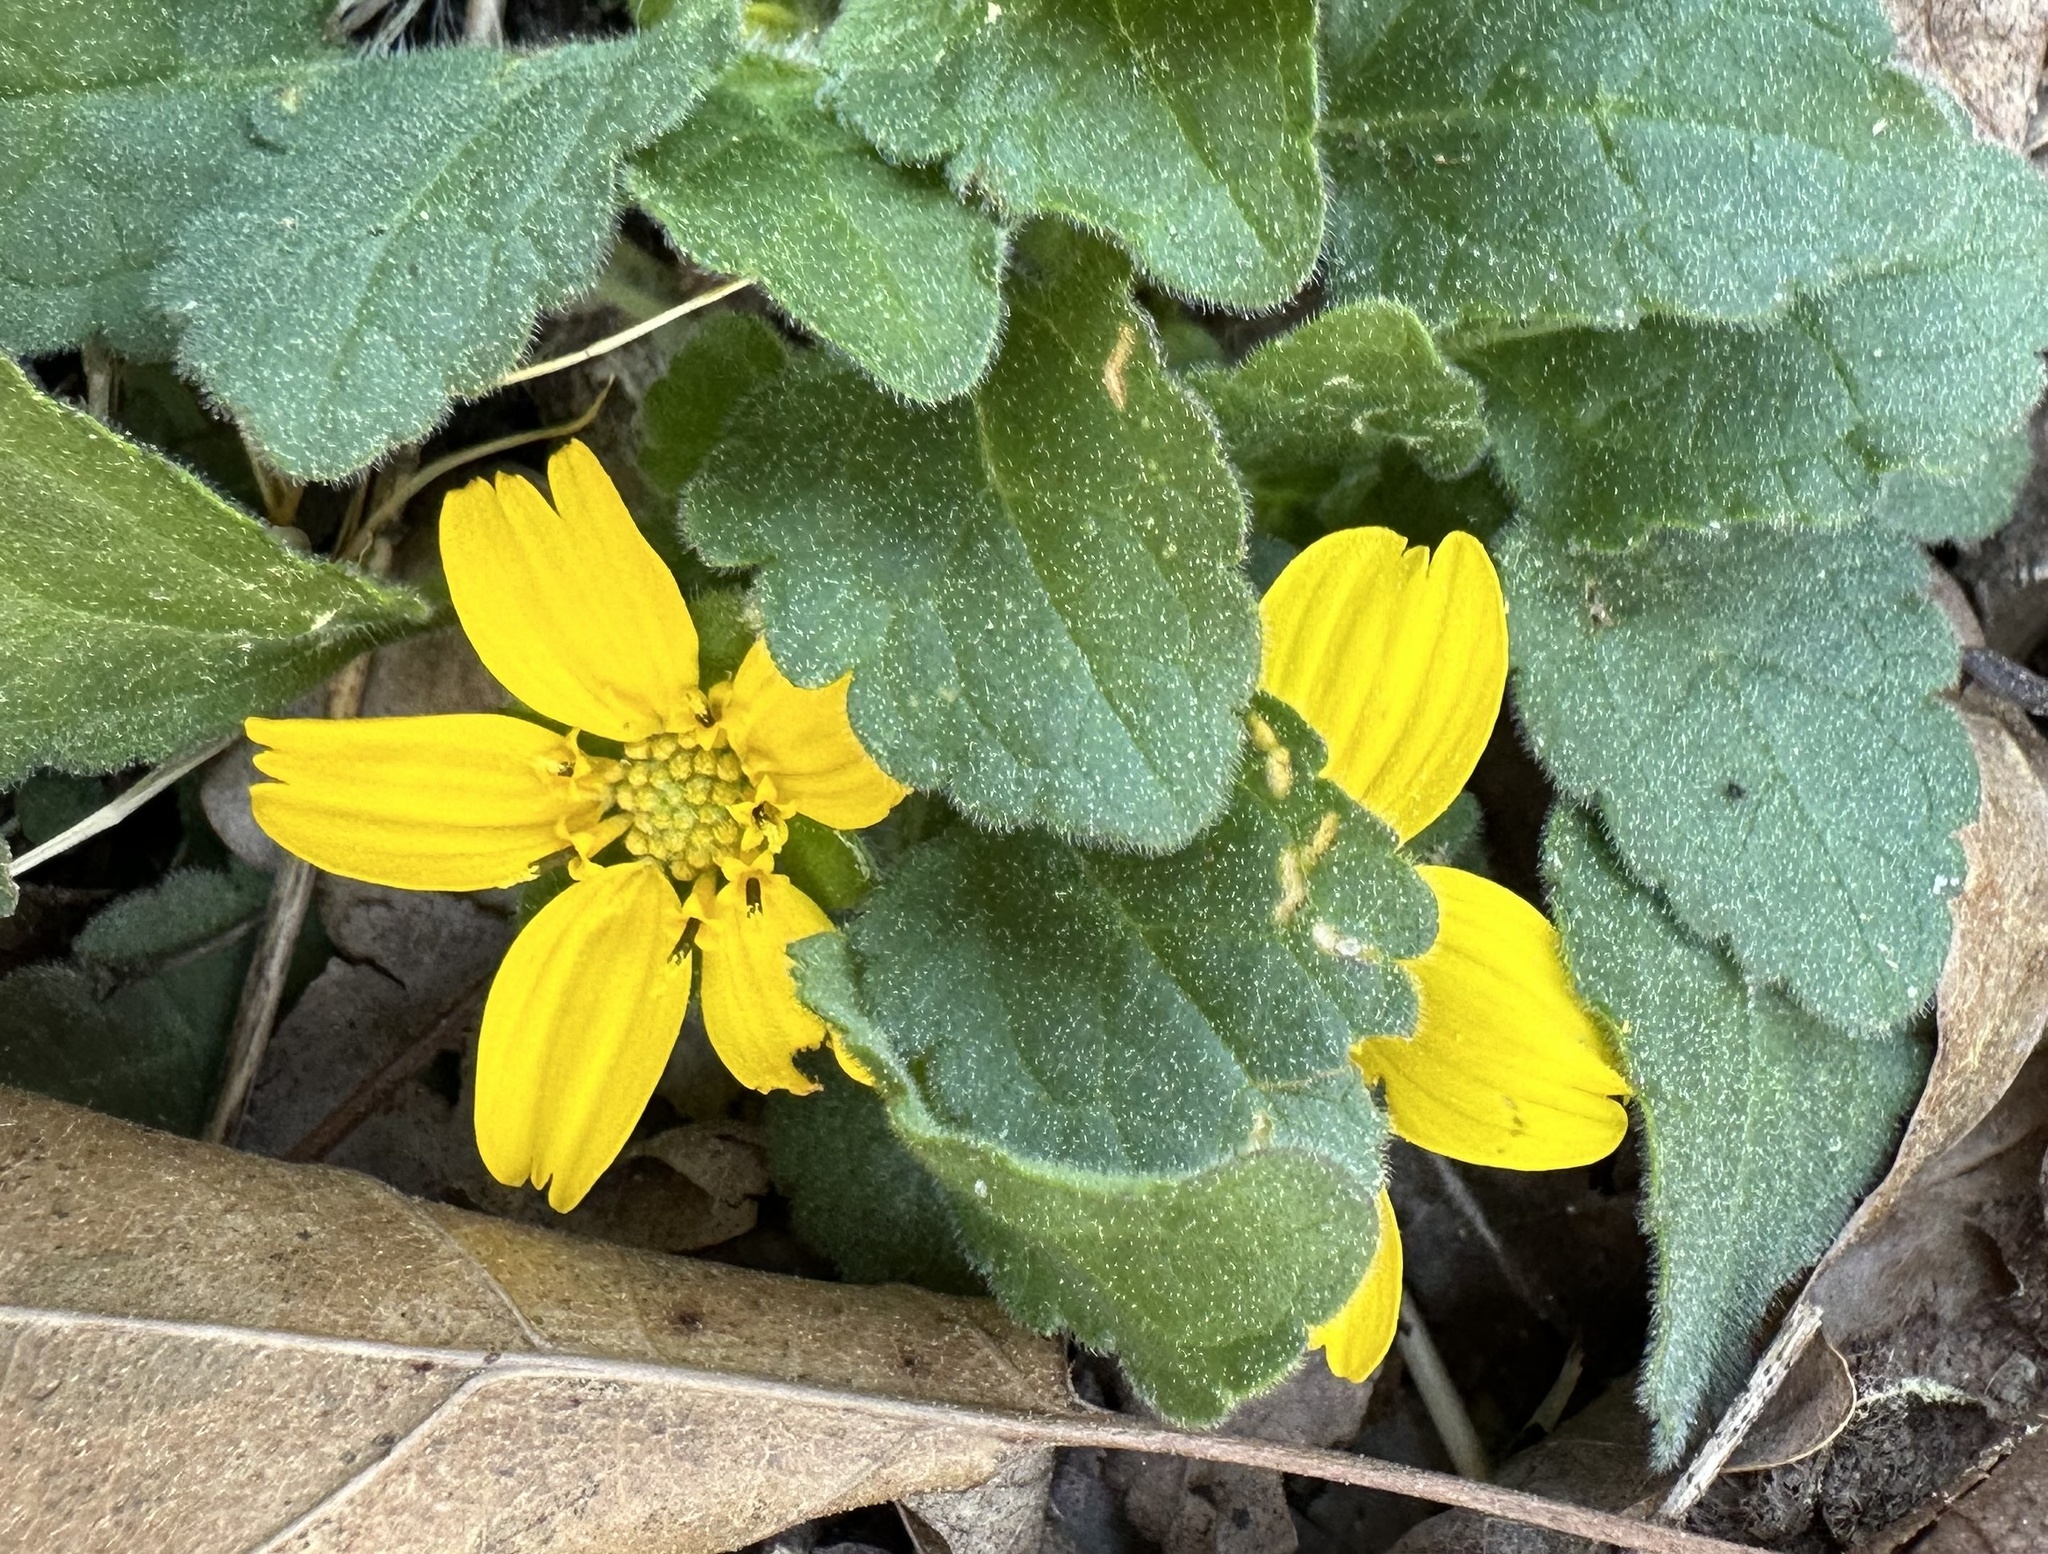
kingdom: Plantae
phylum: Tracheophyta
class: Magnoliopsida
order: Asterales
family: Asteraceae
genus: Chrysogonum
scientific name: Chrysogonum virginianum
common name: Golden-knee
